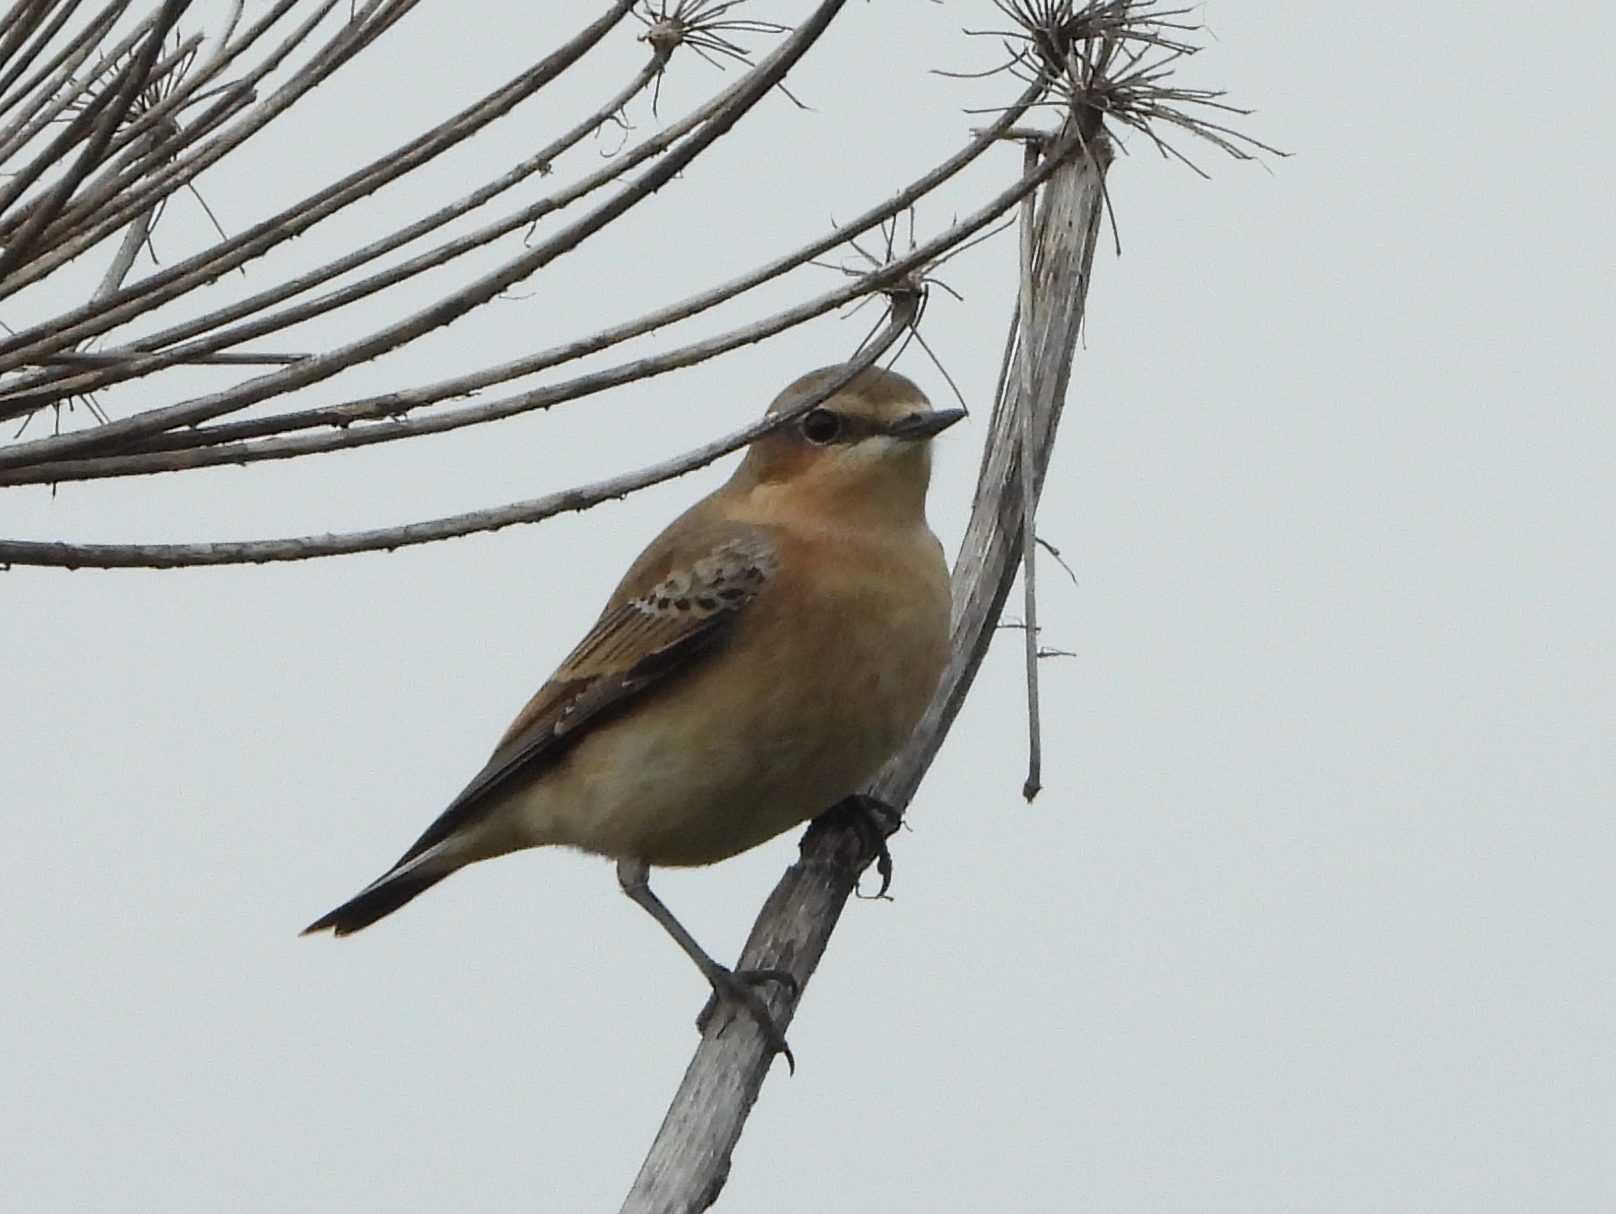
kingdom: Animalia
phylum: Chordata
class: Aves
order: Passeriformes
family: Muscicapidae
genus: Oenanthe
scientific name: Oenanthe oenanthe
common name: Northern wheatear
